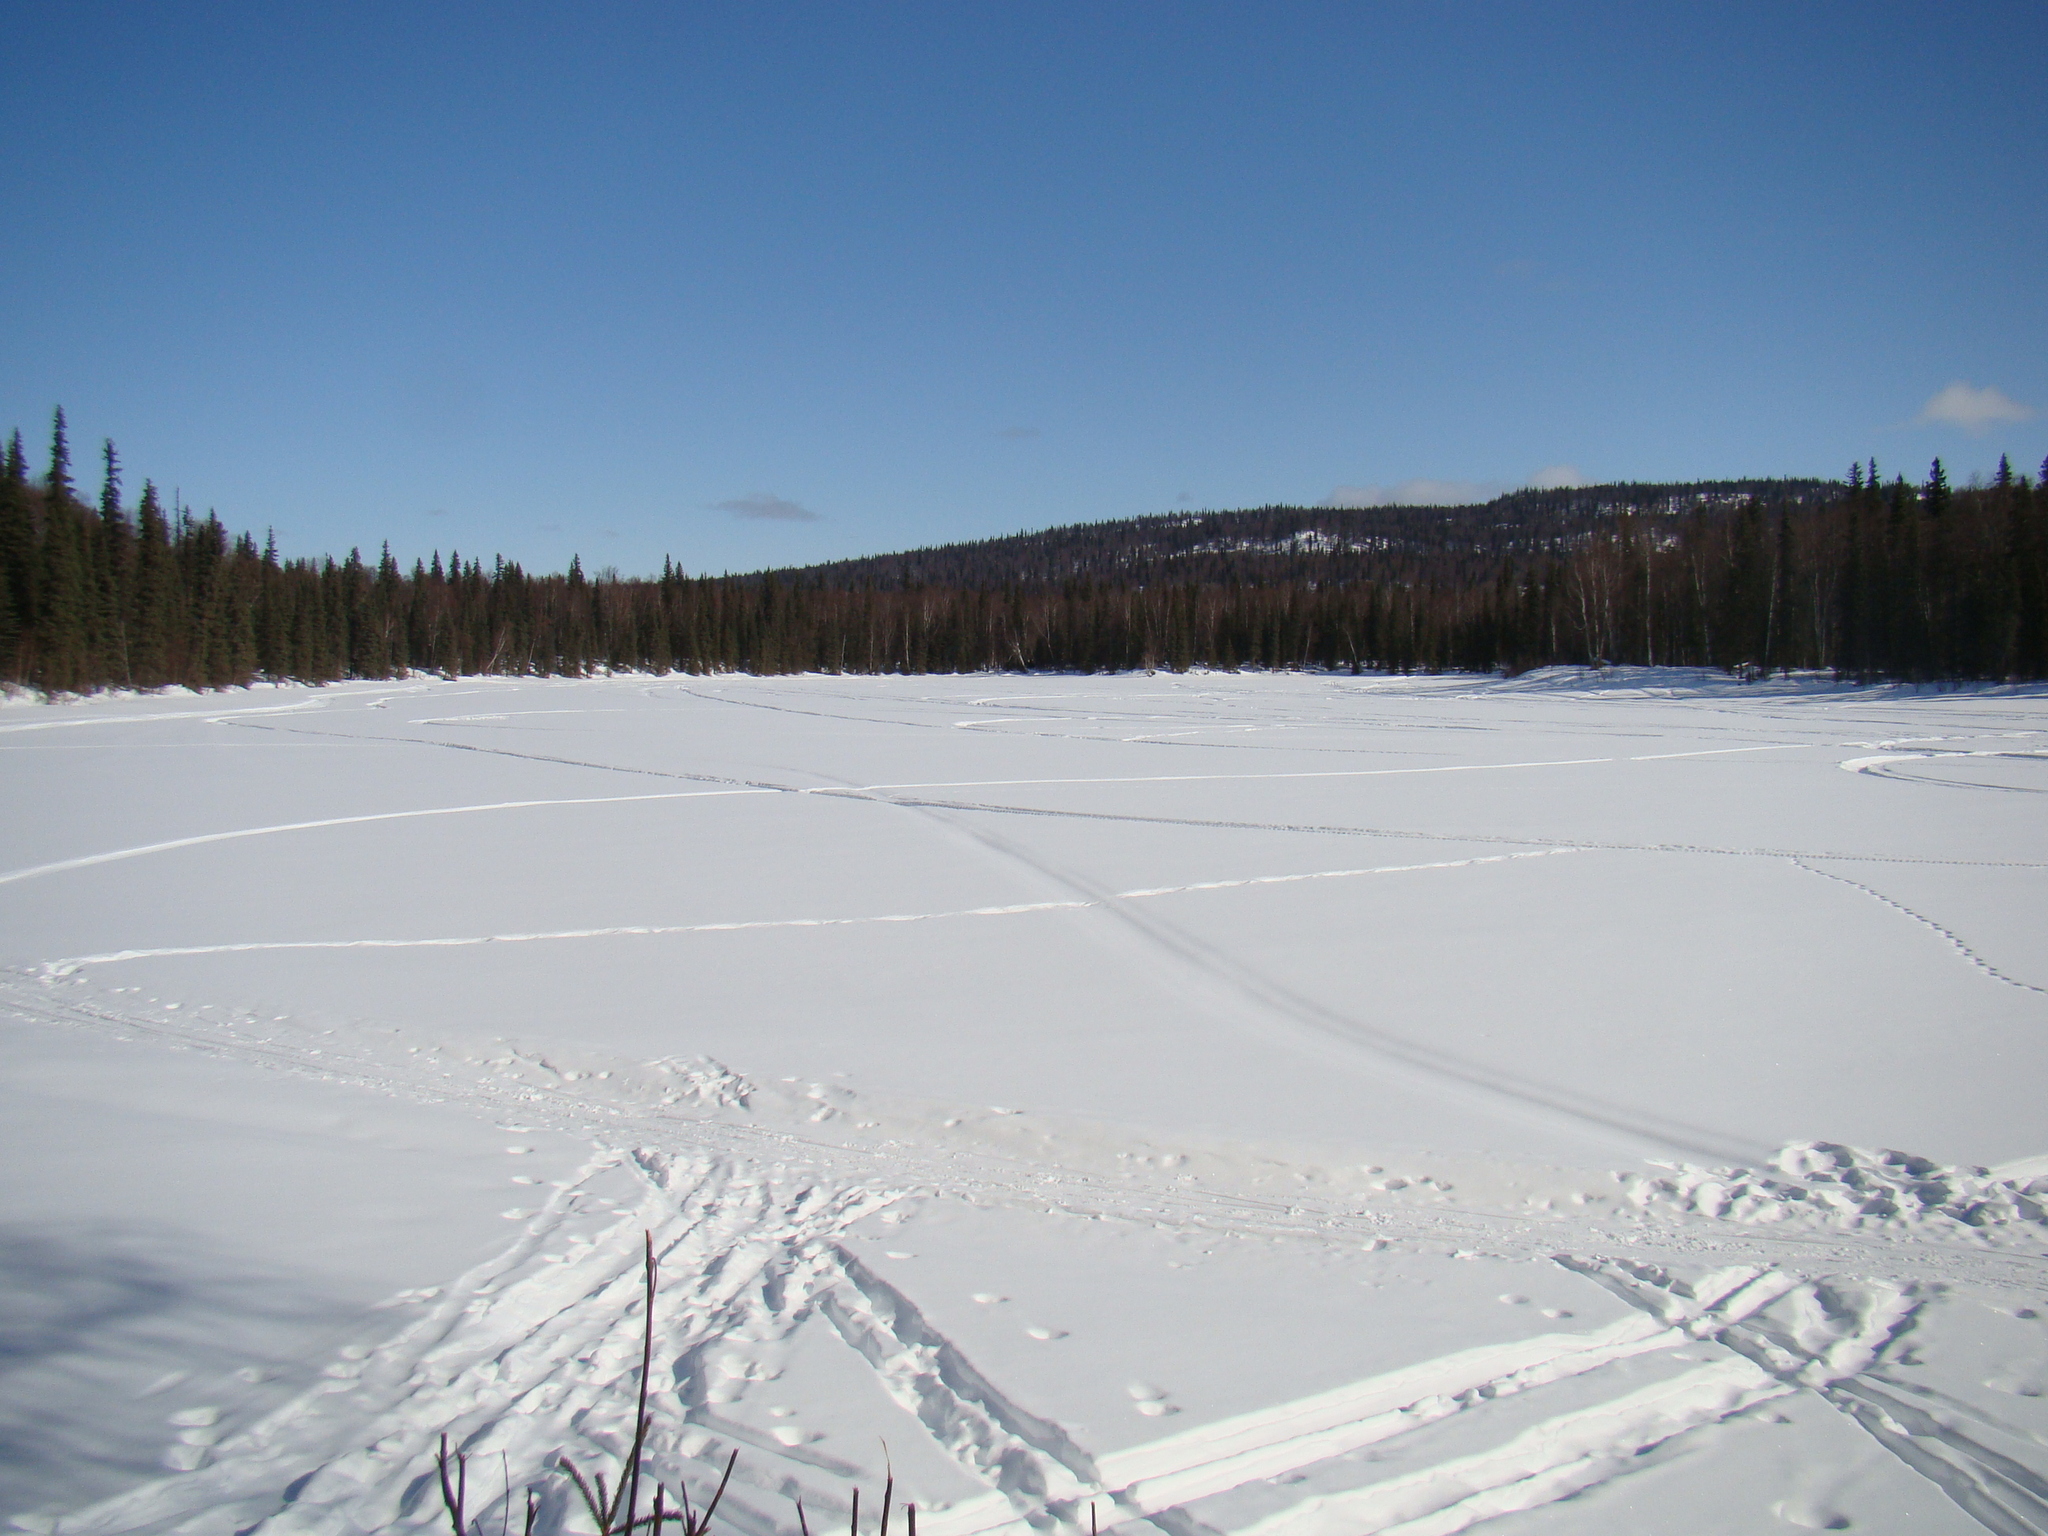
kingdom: Animalia
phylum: Chordata
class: Aves
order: Piciformes
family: Picidae
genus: Picoides
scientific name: Picoides dorsalis
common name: American three-toed woodpecker
